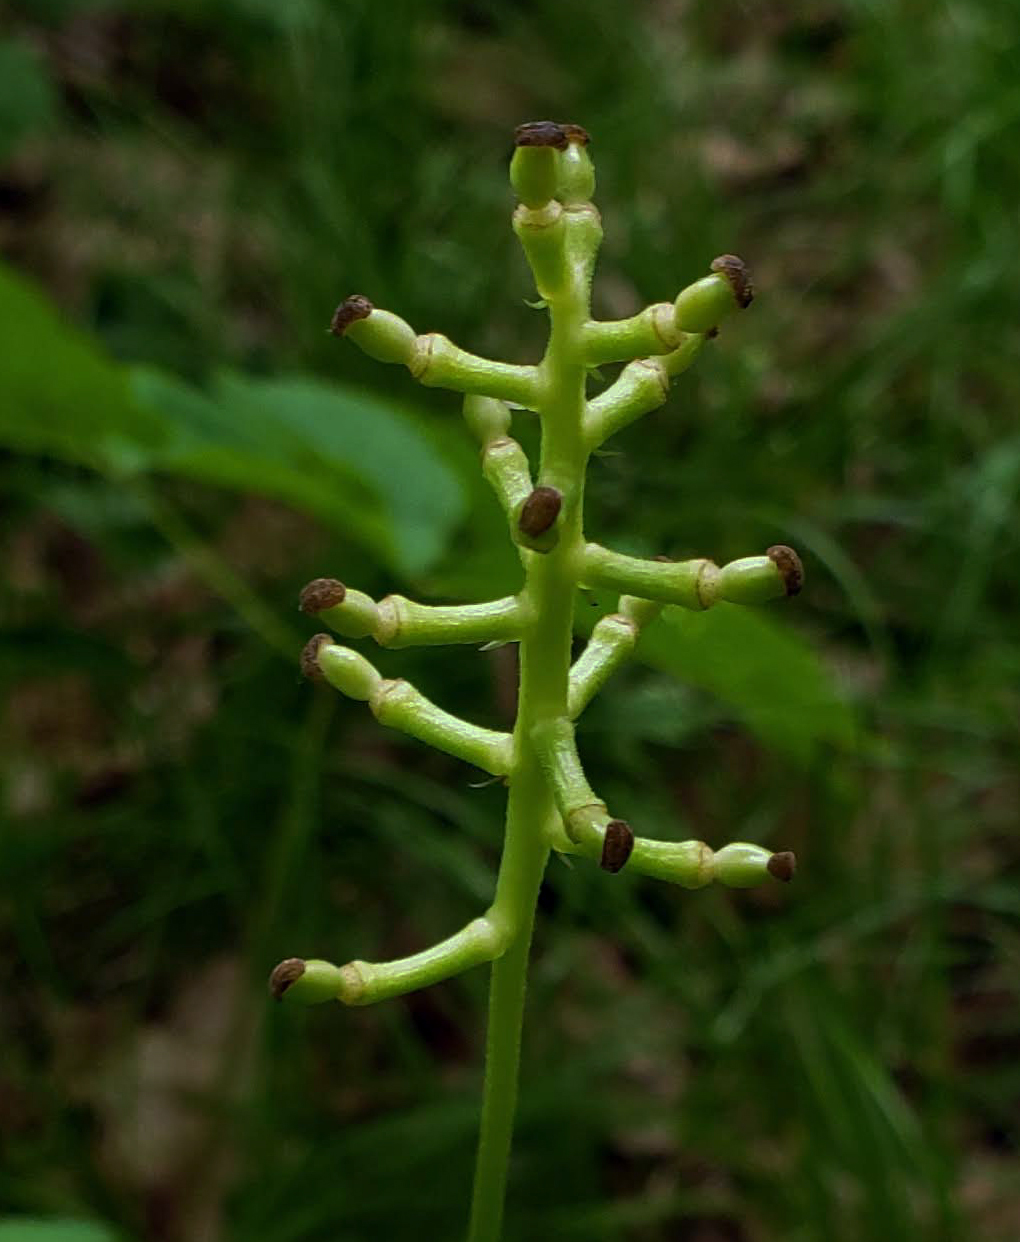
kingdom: Plantae
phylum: Tracheophyta
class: Magnoliopsida
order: Ranunculales
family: Ranunculaceae
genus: Actaea
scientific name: Actaea pachypoda
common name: Doll's-eyes
